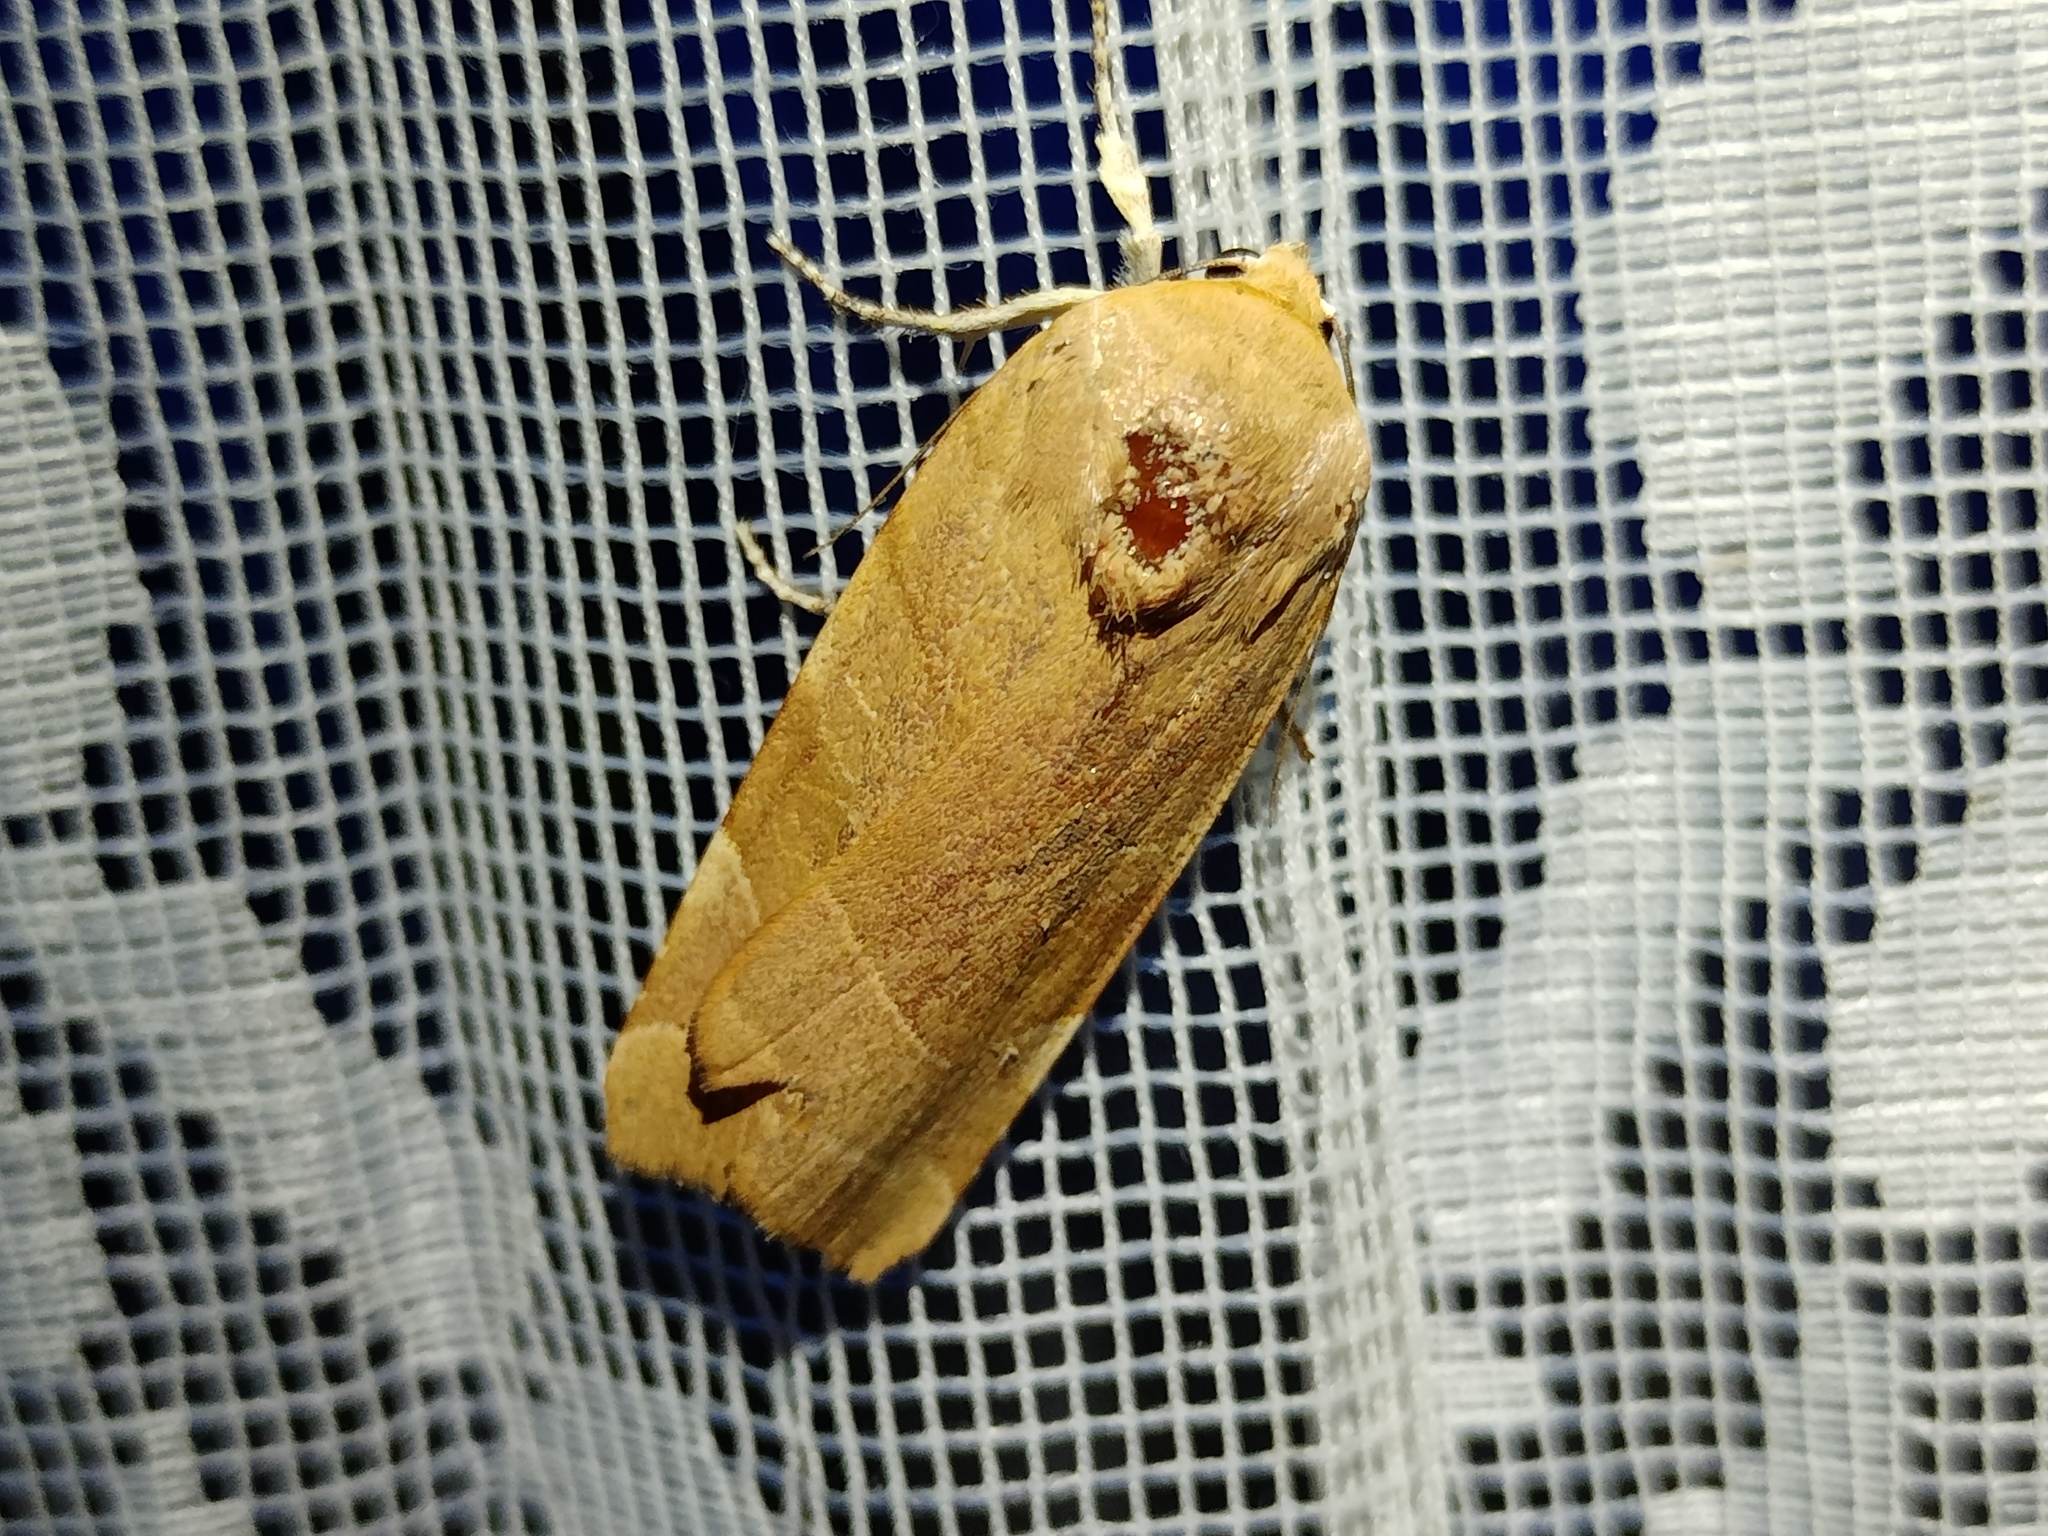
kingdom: Animalia
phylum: Arthropoda
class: Insecta
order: Lepidoptera
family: Noctuidae
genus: Noctua
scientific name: Noctua fimbriata
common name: Broad-bordered yellow underwing
